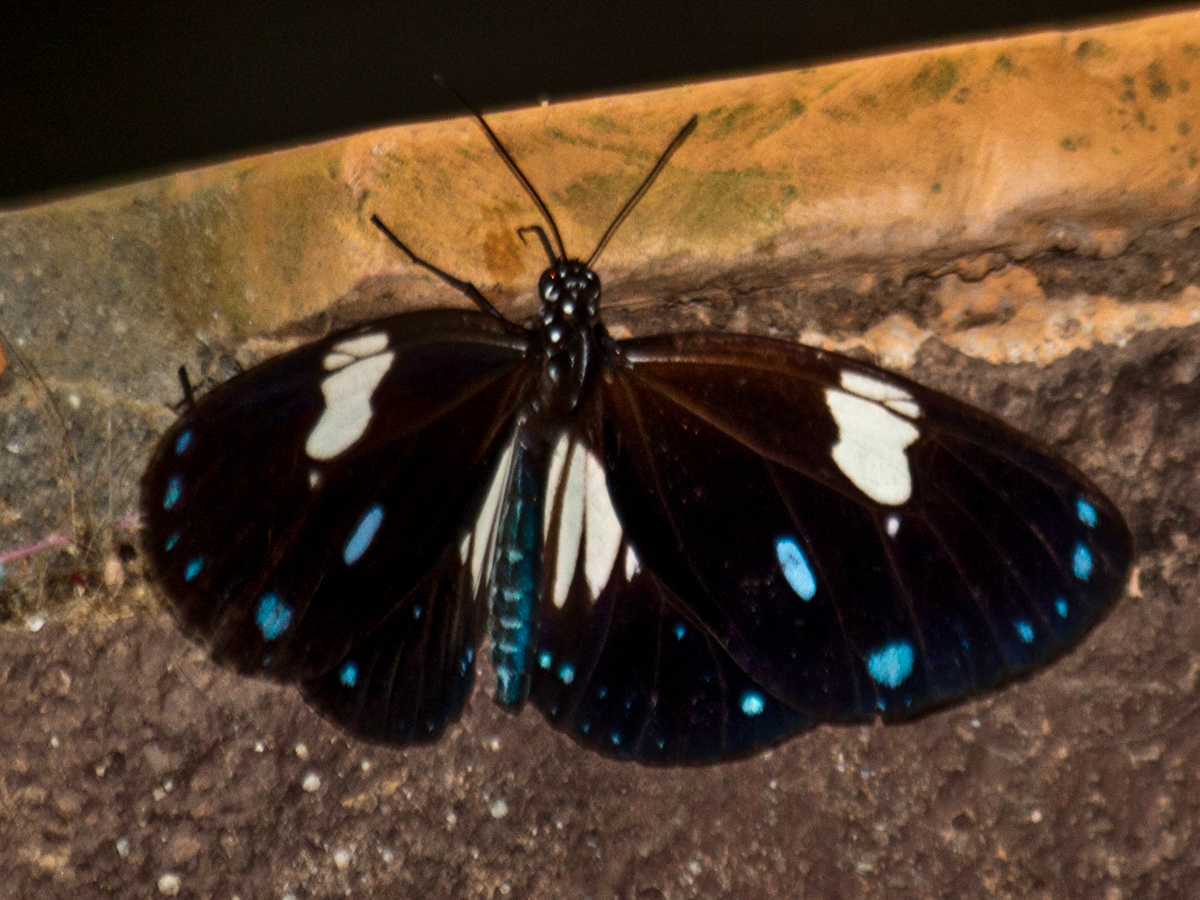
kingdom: Animalia
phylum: Arthropoda
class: Insecta
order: Lepidoptera
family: Nymphalidae
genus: Euploea
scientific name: Euploea radamanthus
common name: Magpie crow butterfly
